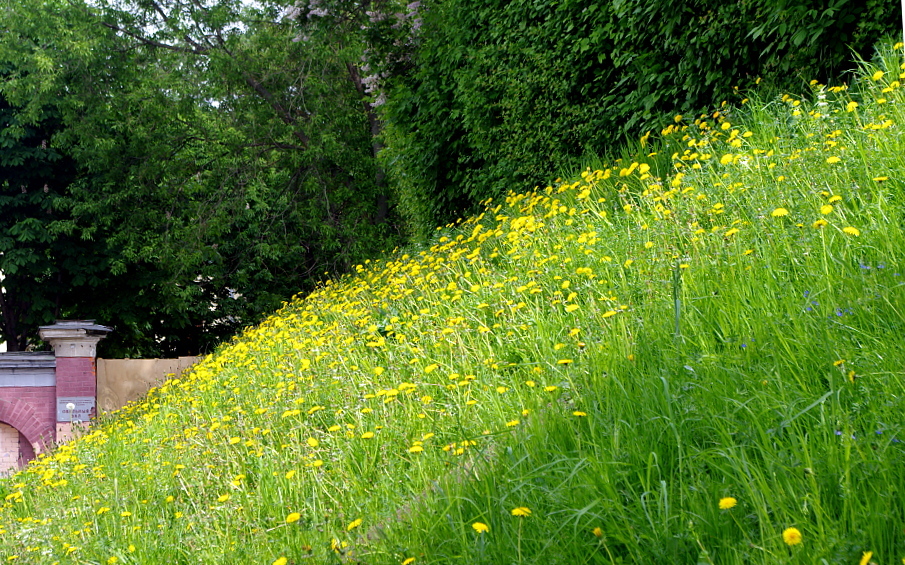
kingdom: Plantae
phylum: Tracheophyta
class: Magnoliopsida
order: Asterales
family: Asteraceae
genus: Taraxacum
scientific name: Taraxacum officinale
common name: Common dandelion
